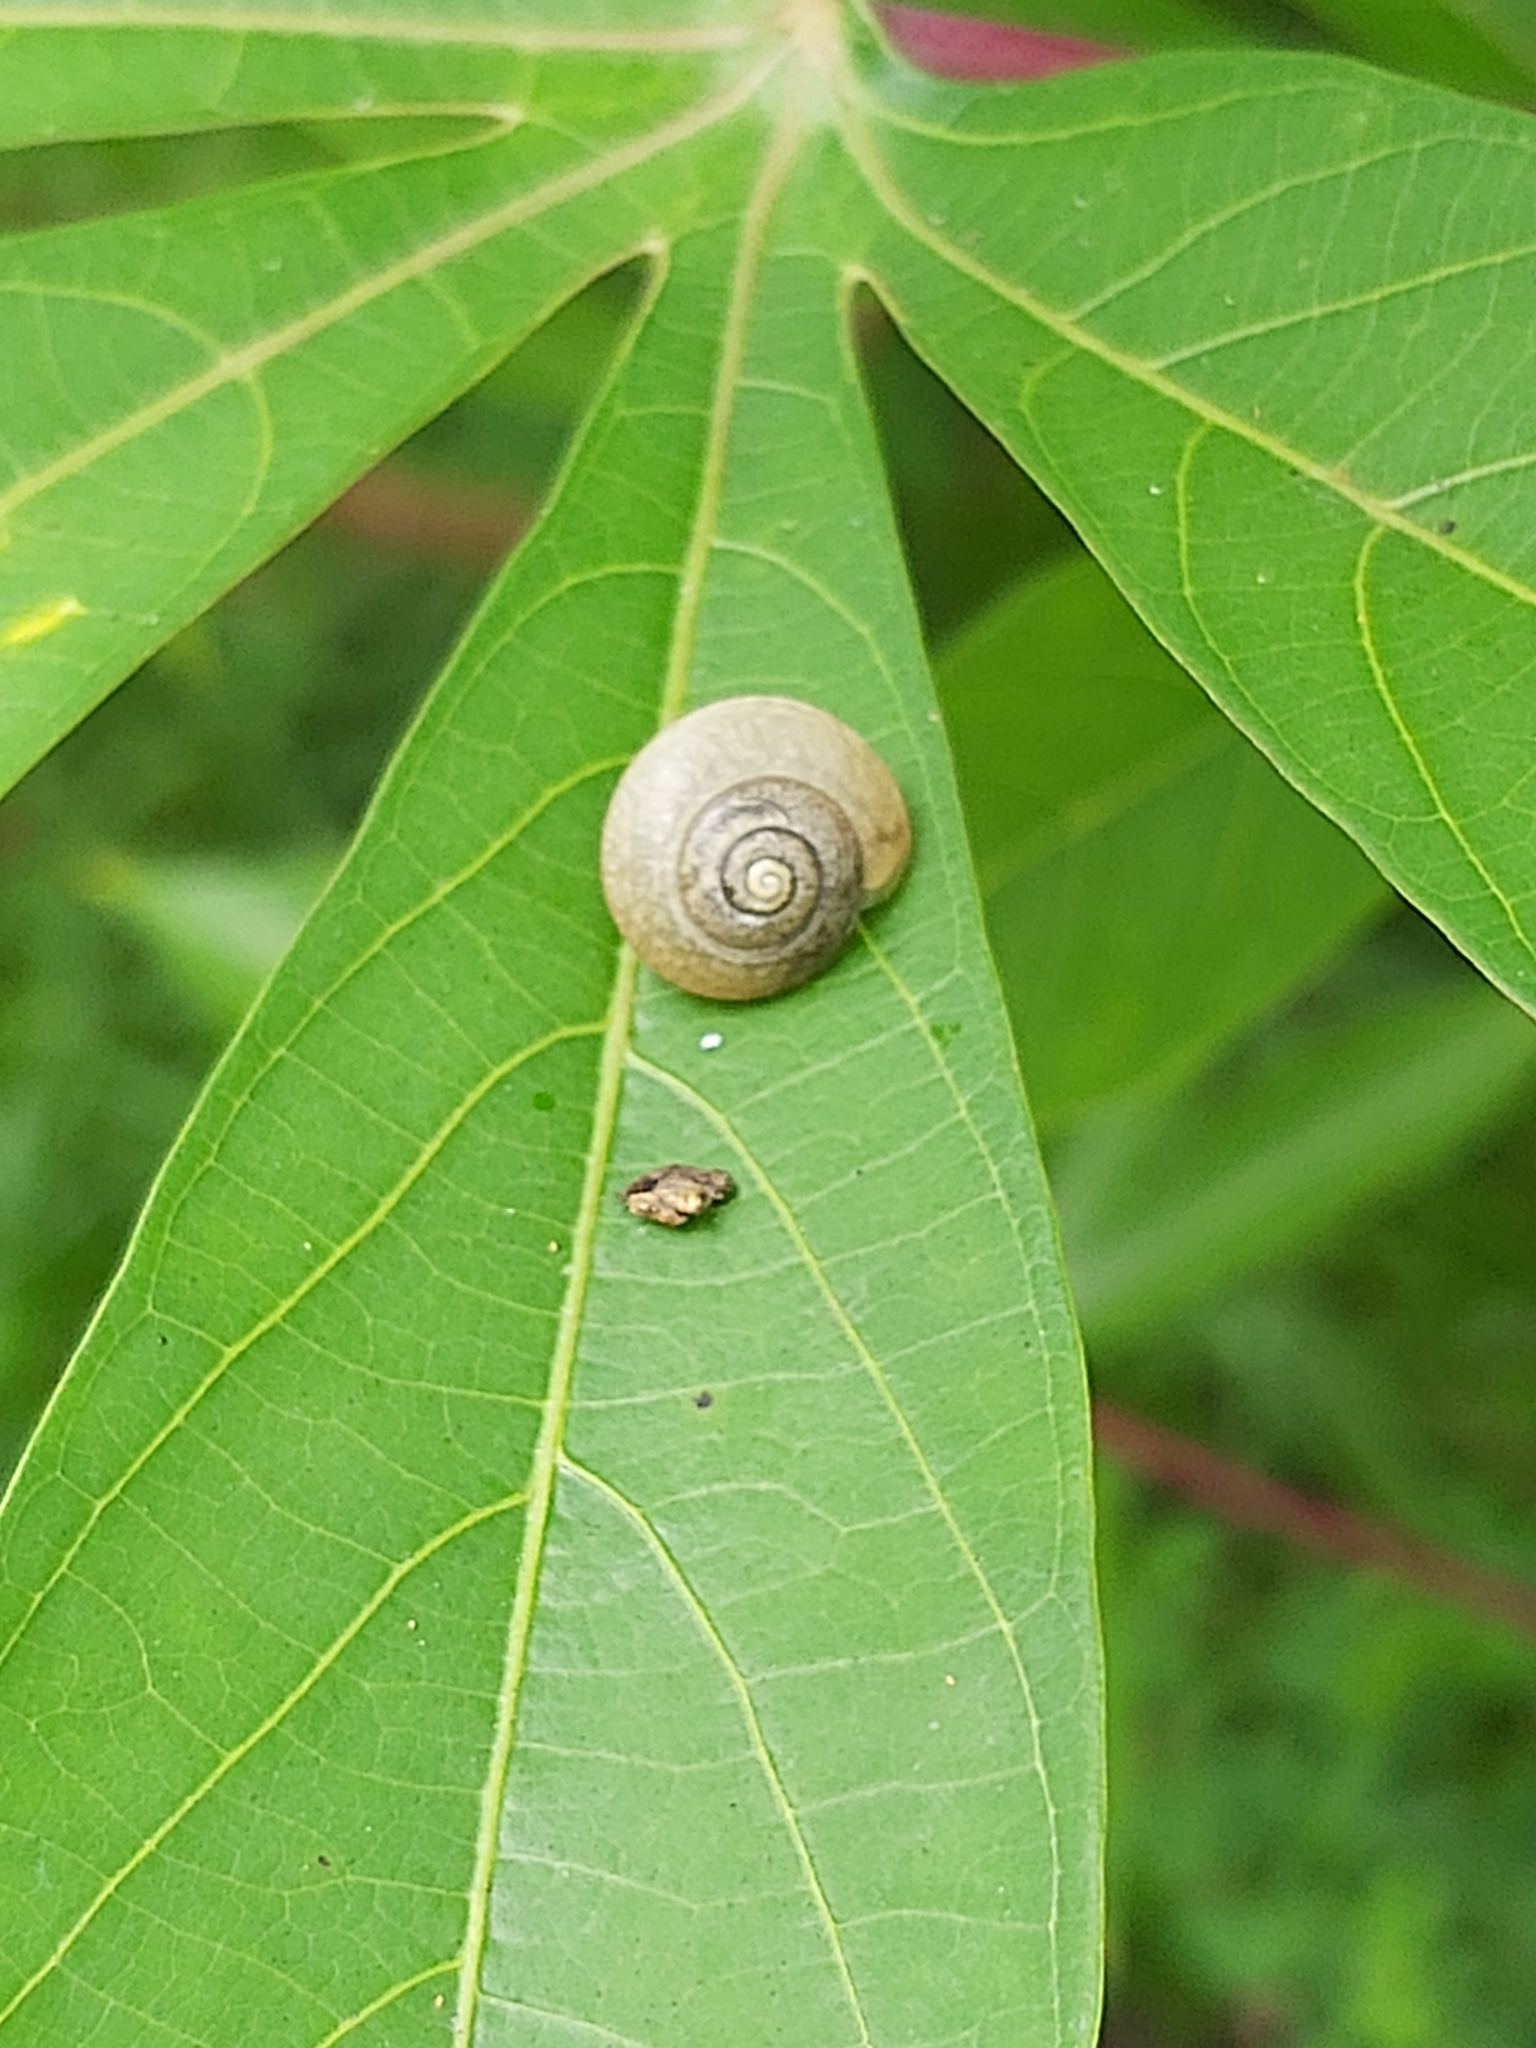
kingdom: Animalia
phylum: Mollusca
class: Gastropoda
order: Stylommatophora
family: Camaenidae
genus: Bradybaena
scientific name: Bradybaena similaris
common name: Asian trampsnail
